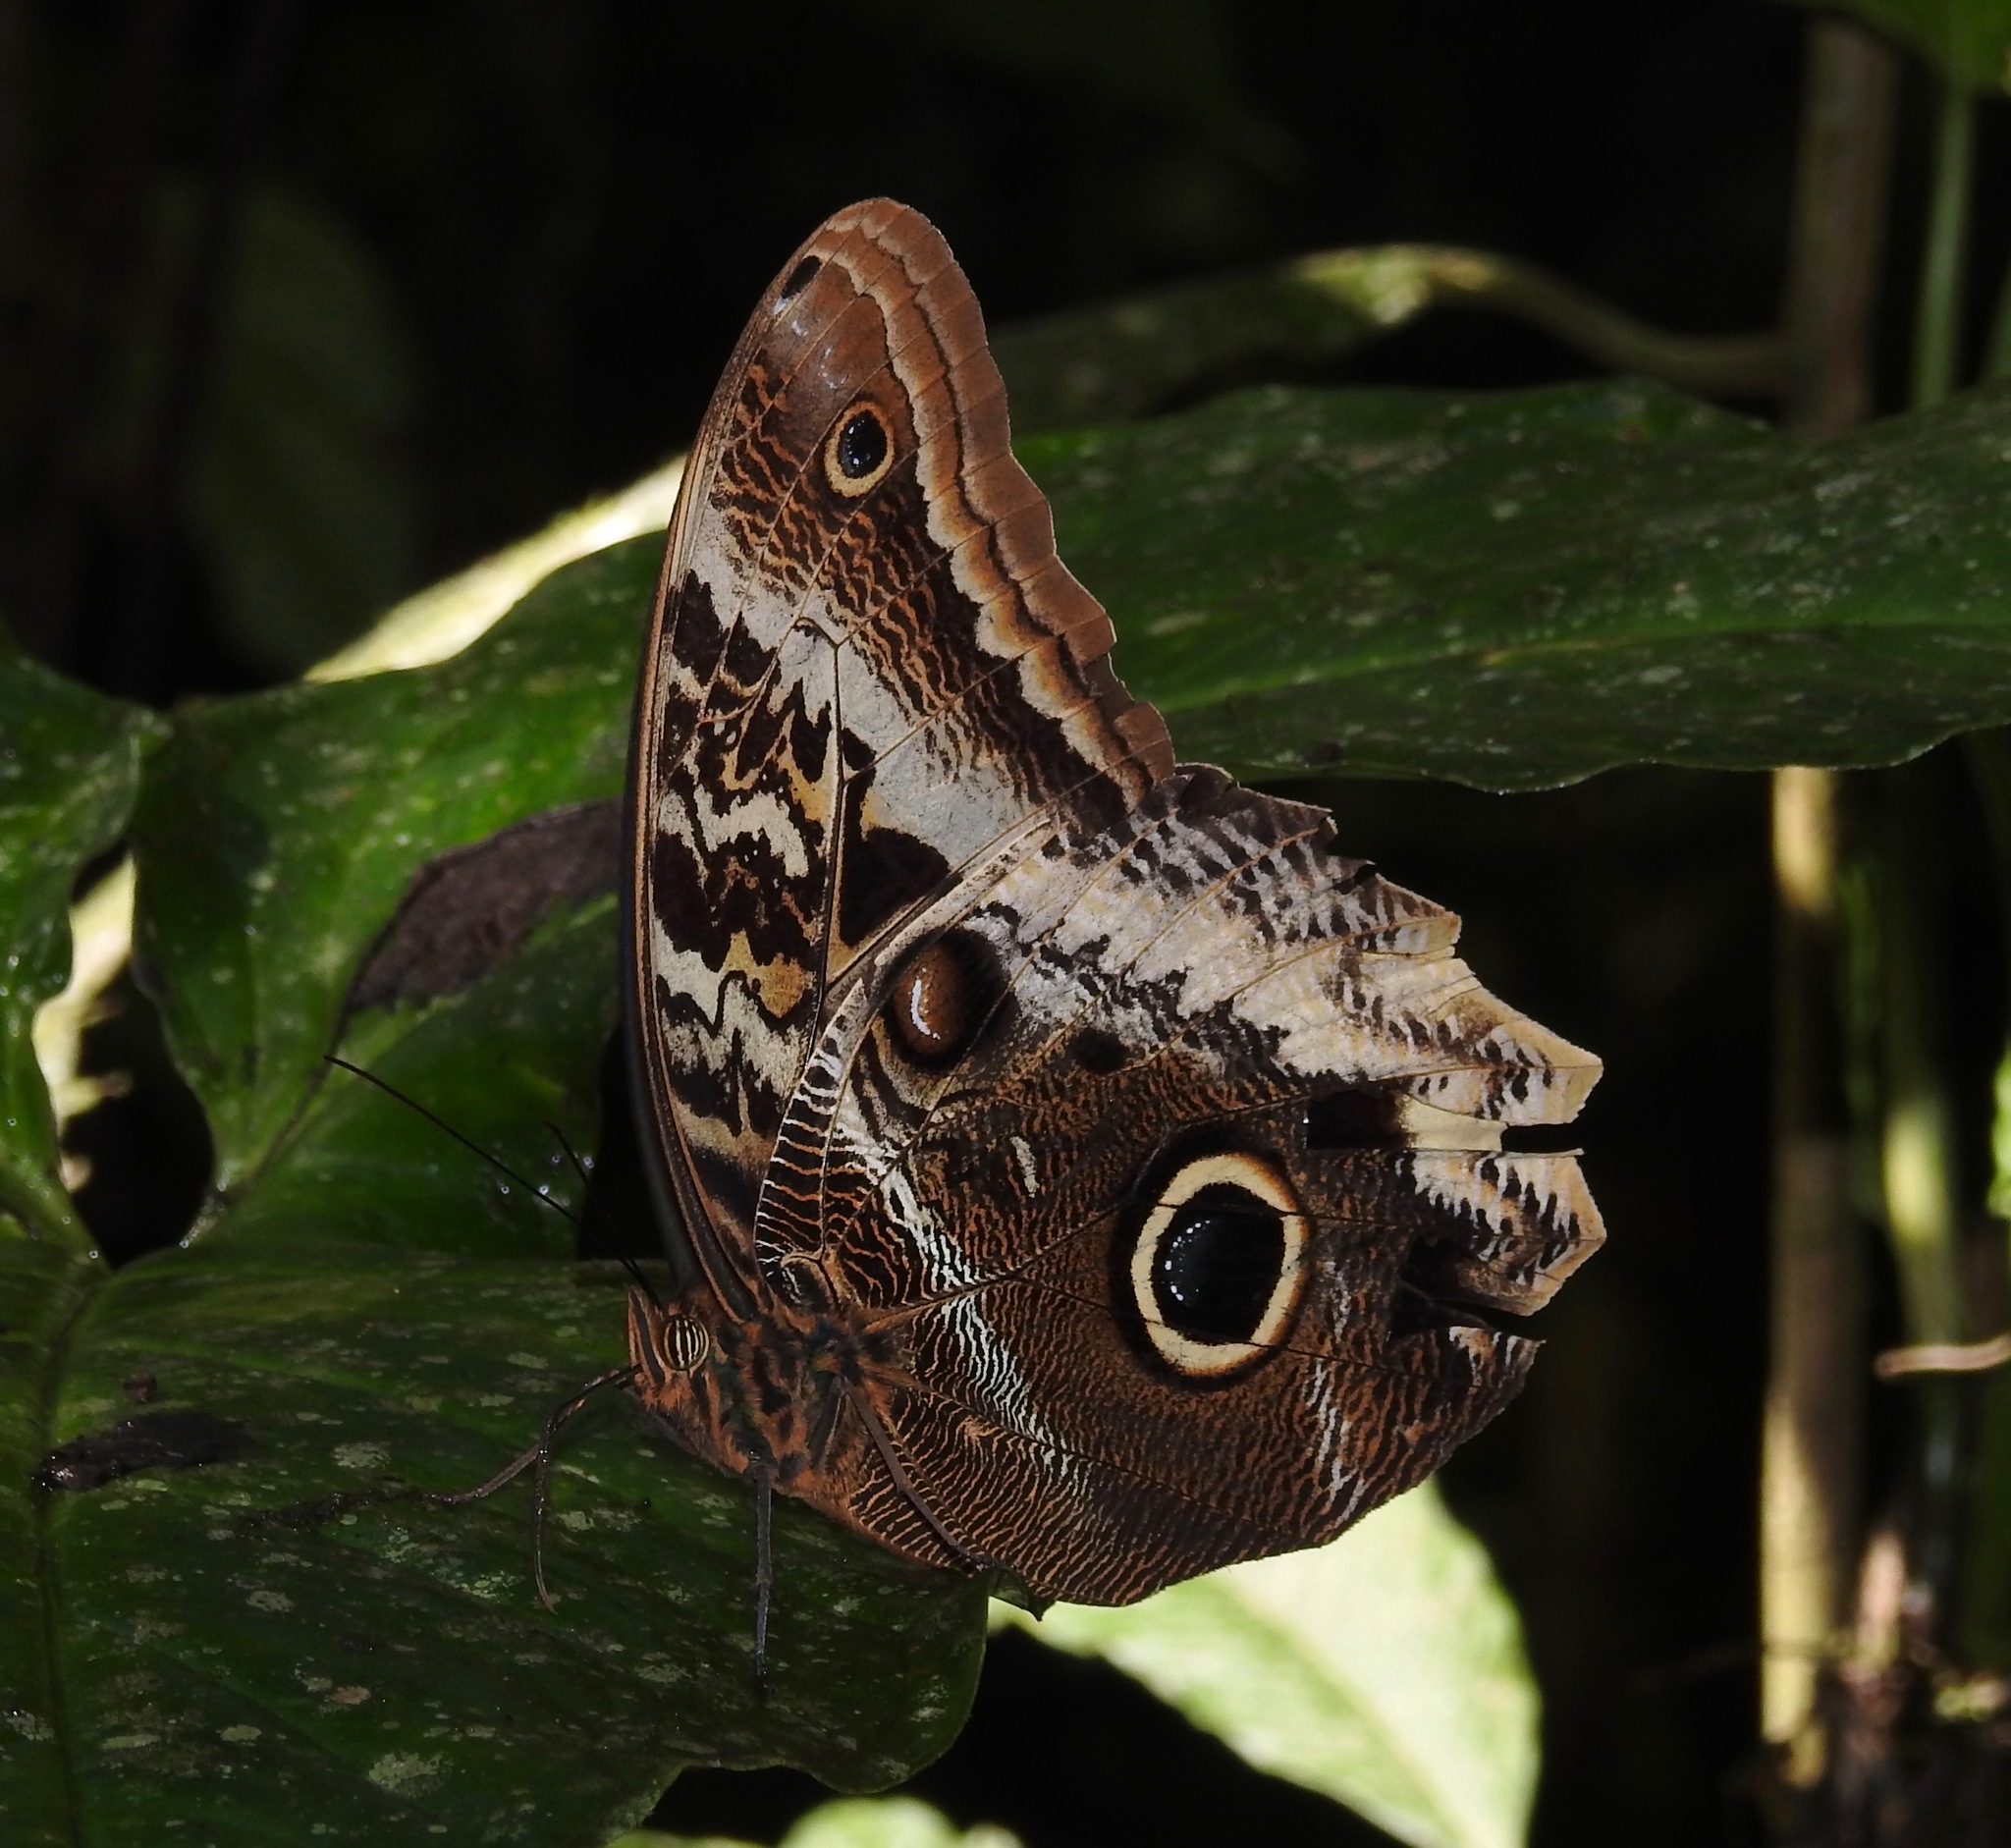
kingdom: Animalia
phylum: Arthropoda
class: Insecta
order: Lepidoptera
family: Nymphalidae
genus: Caligo
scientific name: Caligo atreus
